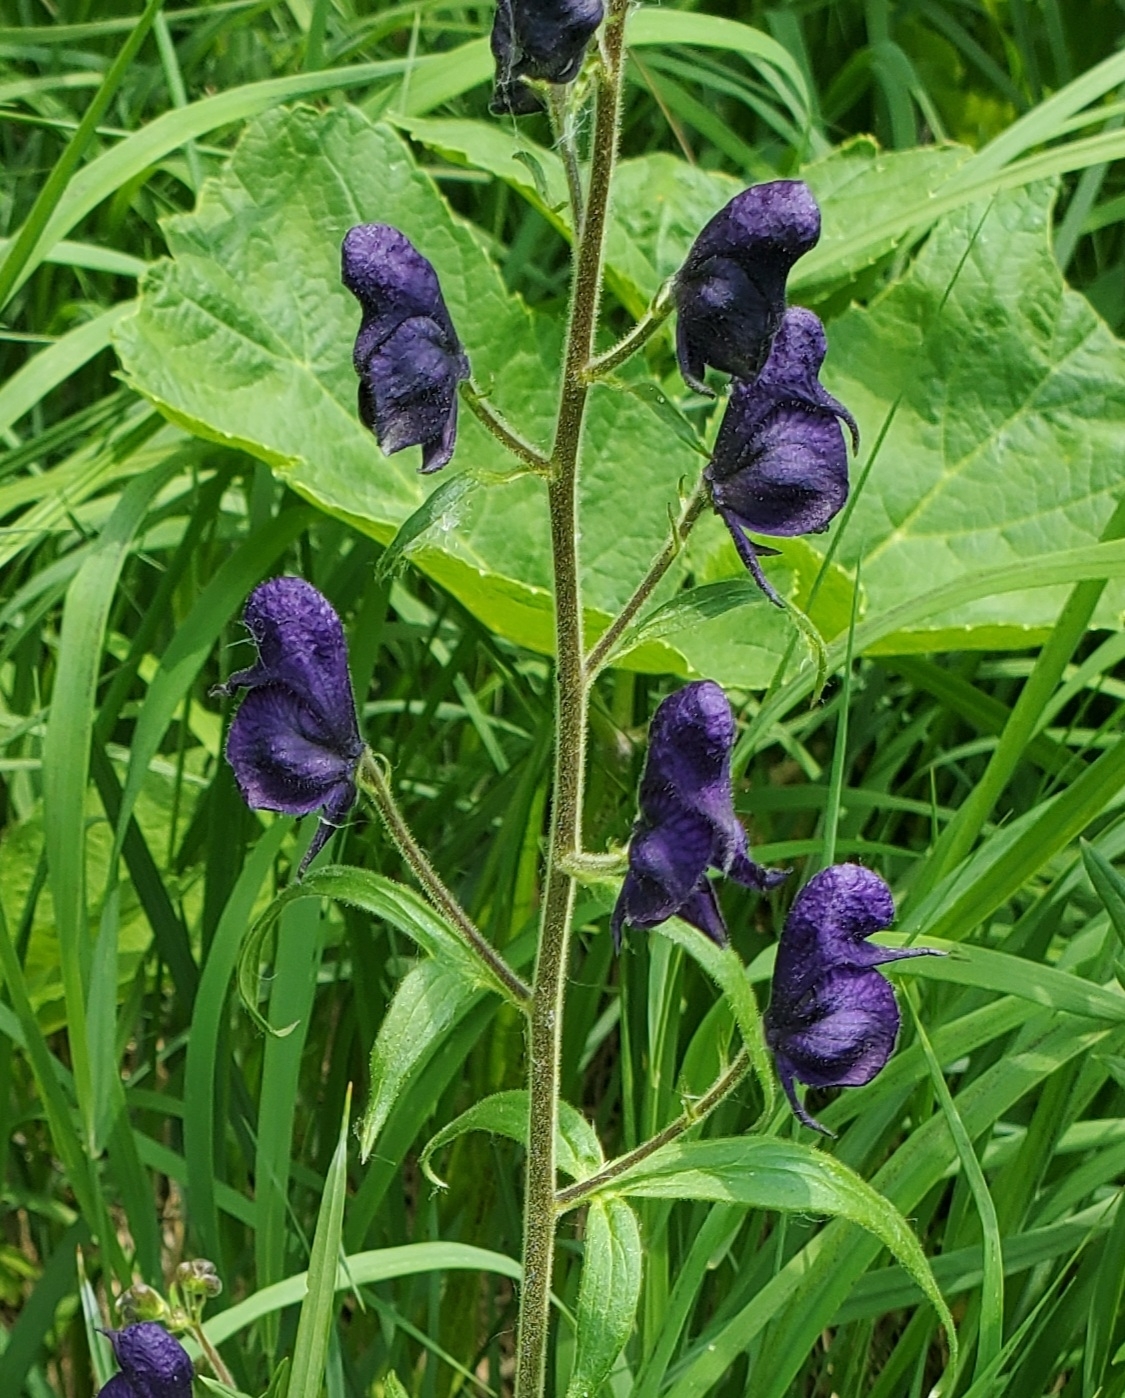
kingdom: Plantae
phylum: Tracheophyta
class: Magnoliopsida
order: Ranunculales
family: Ranunculaceae
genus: Aconitum
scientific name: Aconitum columbianum
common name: Columbia aconite
